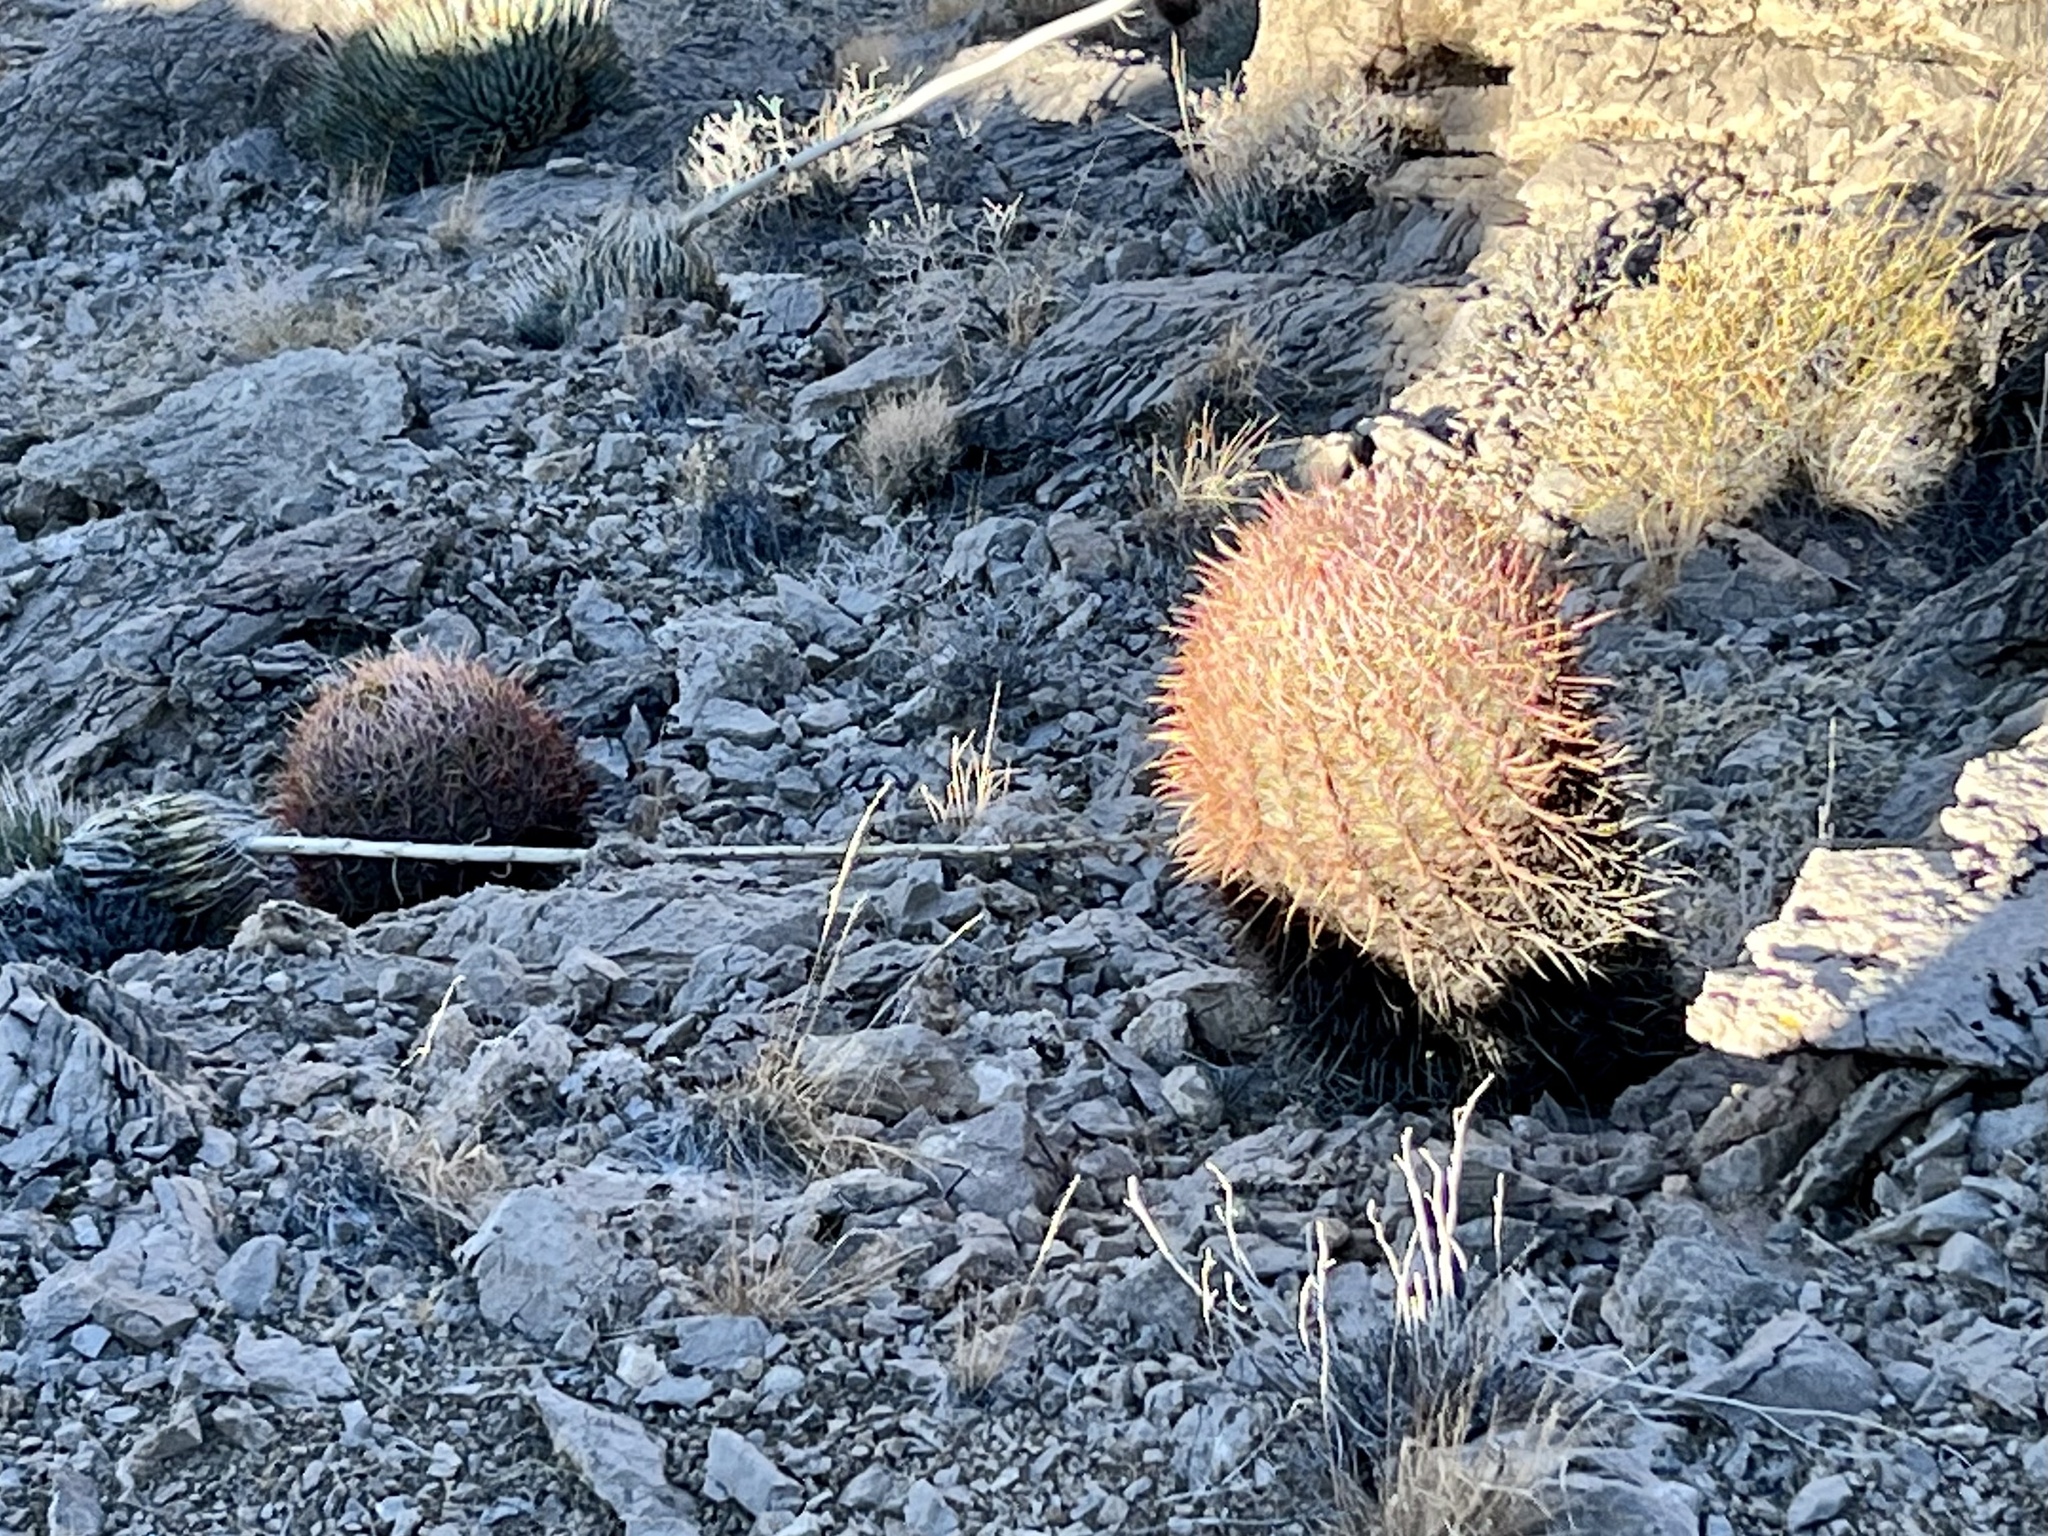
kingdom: Plantae
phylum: Tracheophyta
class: Magnoliopsida
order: Caryophyllales
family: Cactaceae
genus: Ferocactus
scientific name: Ferocactus cylindraceus
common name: California barrel cactus
